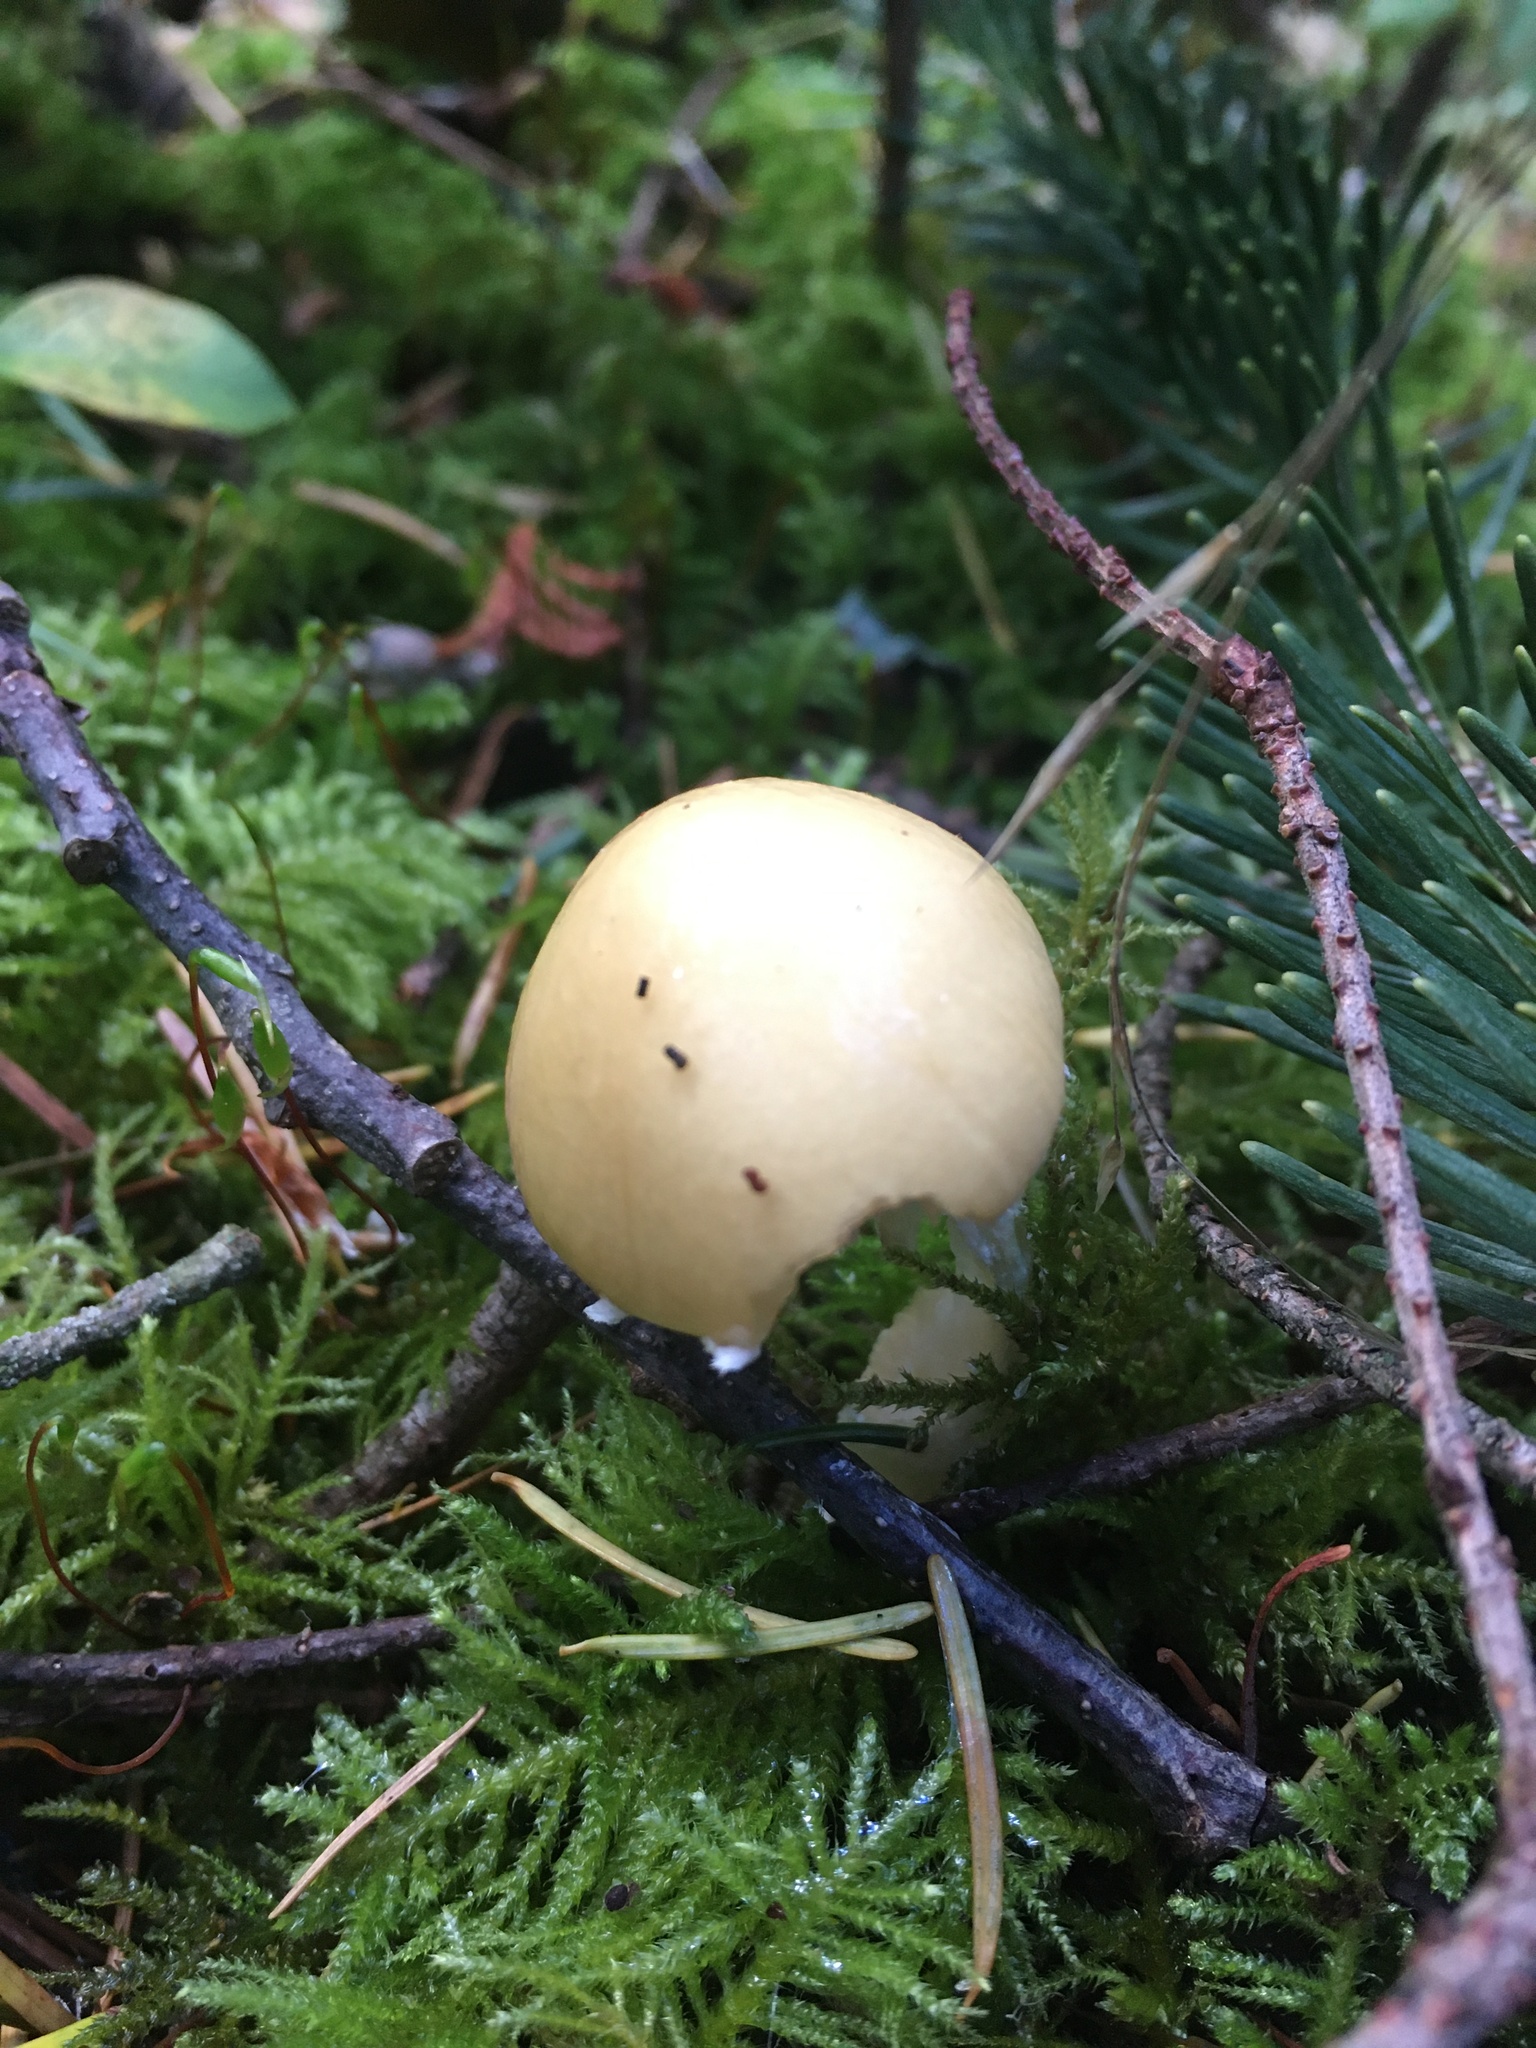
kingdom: Fungi
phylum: Basidiomycota
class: Agaricomycetes
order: Agaricales
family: Strophariaceae
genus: Stropharia
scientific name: Stropharia ambigua
